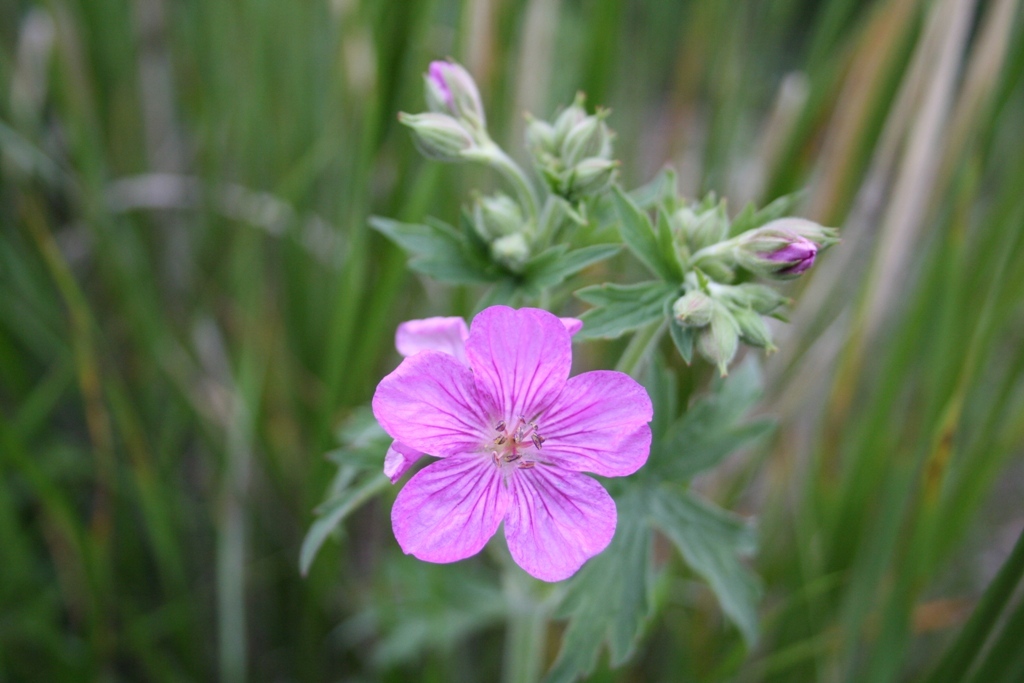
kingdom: Plantae
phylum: Tracheophyta
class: Magnoliopsida
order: Geraniales
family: Geraniaceae
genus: Geranium
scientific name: Geranium viscosissimum
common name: Purple geranium
